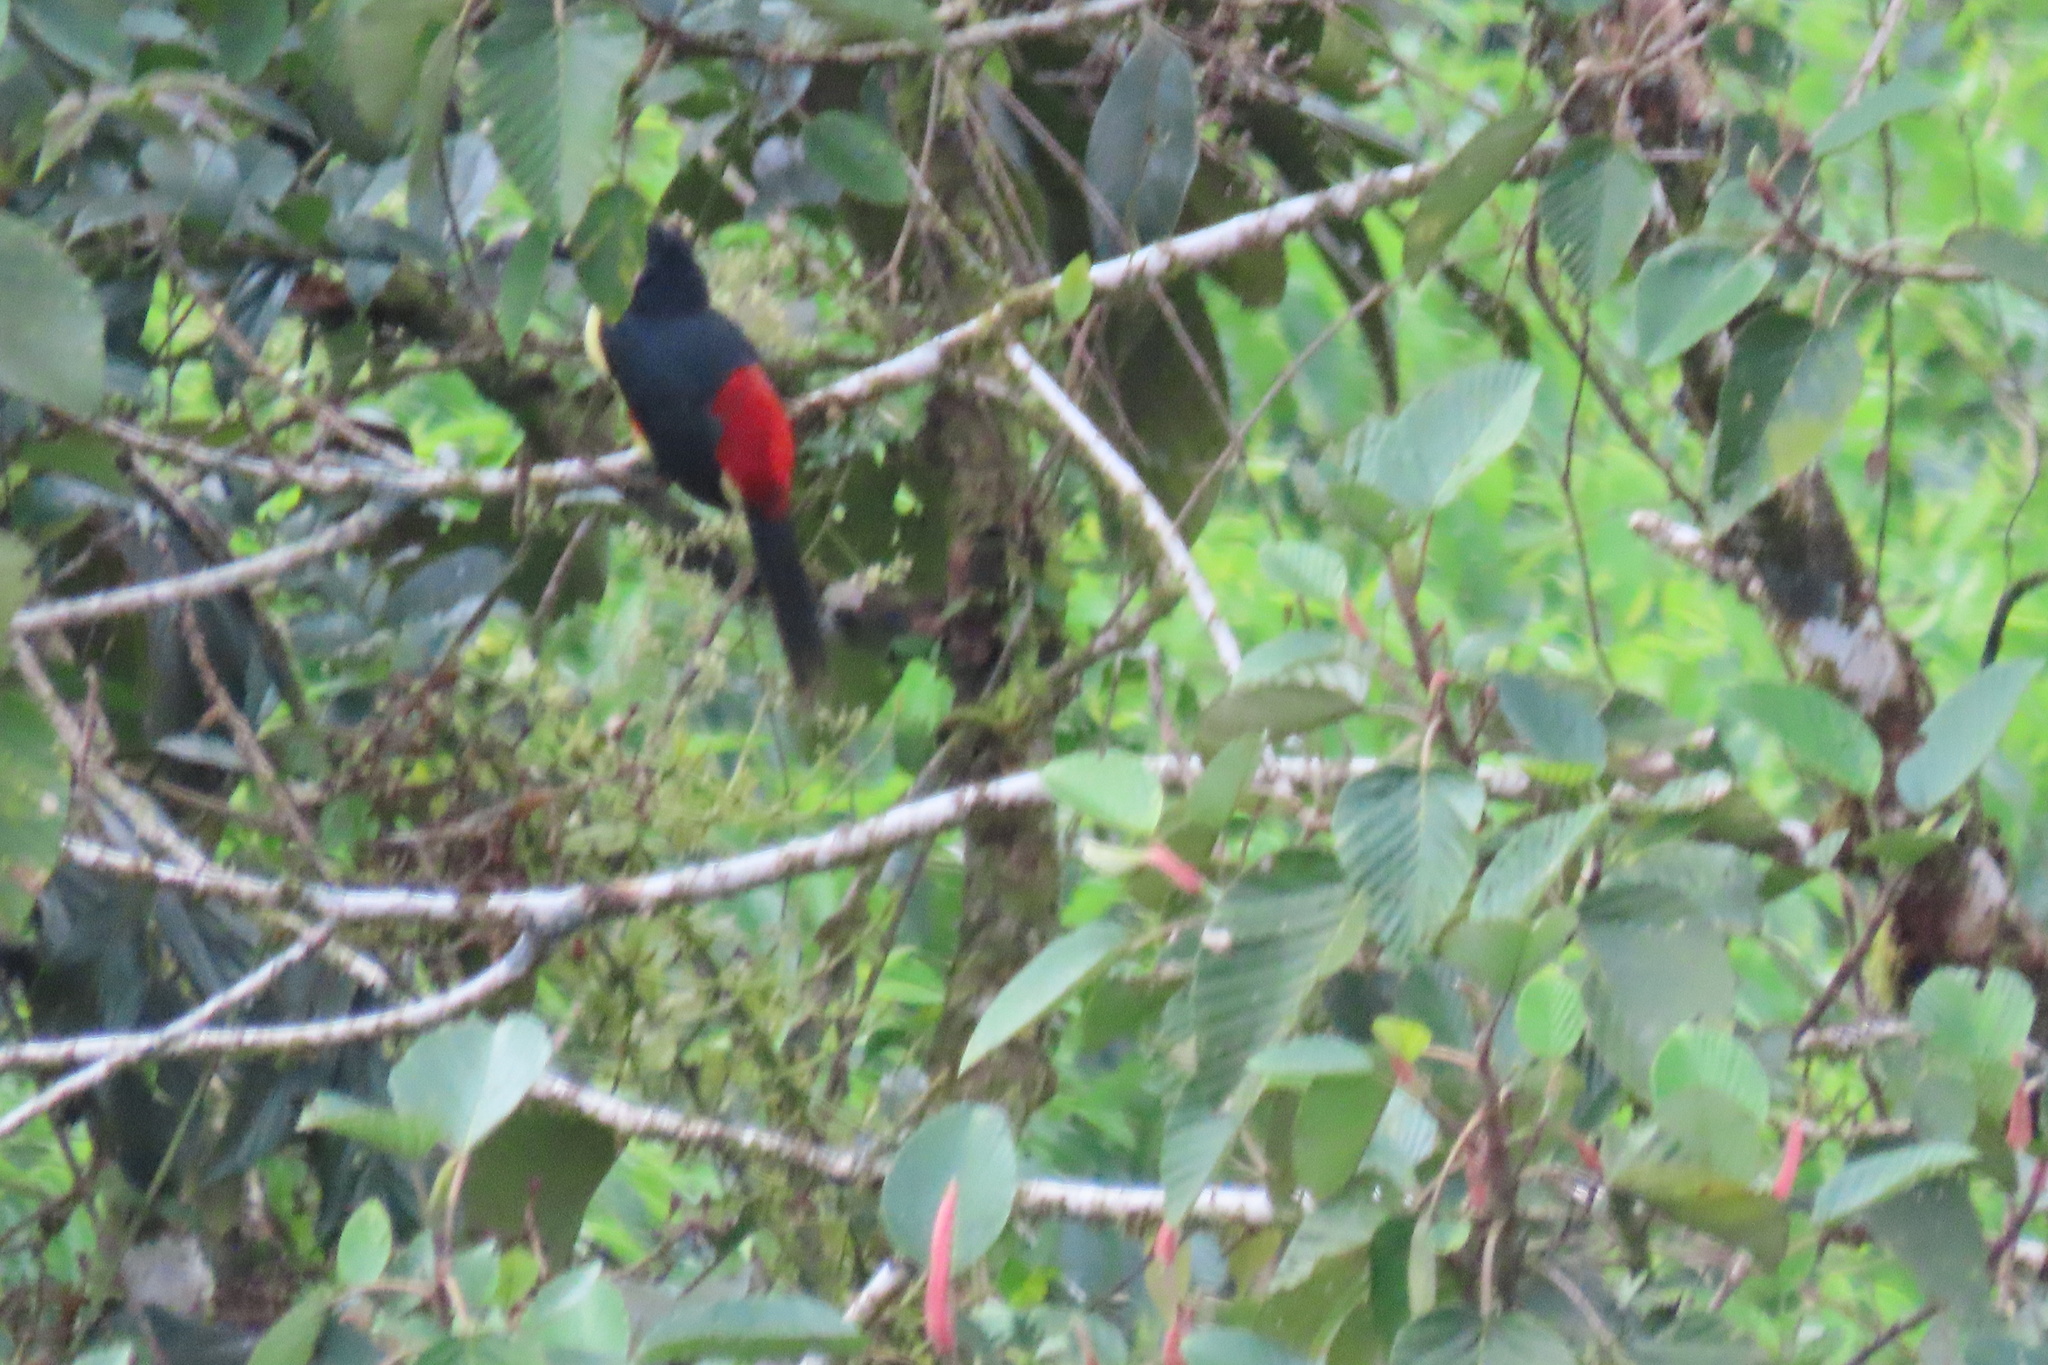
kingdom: Animalia
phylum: Chordata
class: Aves
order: Piciformes
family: Ramphastidae
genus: Pteroglossus
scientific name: Pteroglossus torquatus
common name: Collared aracari
